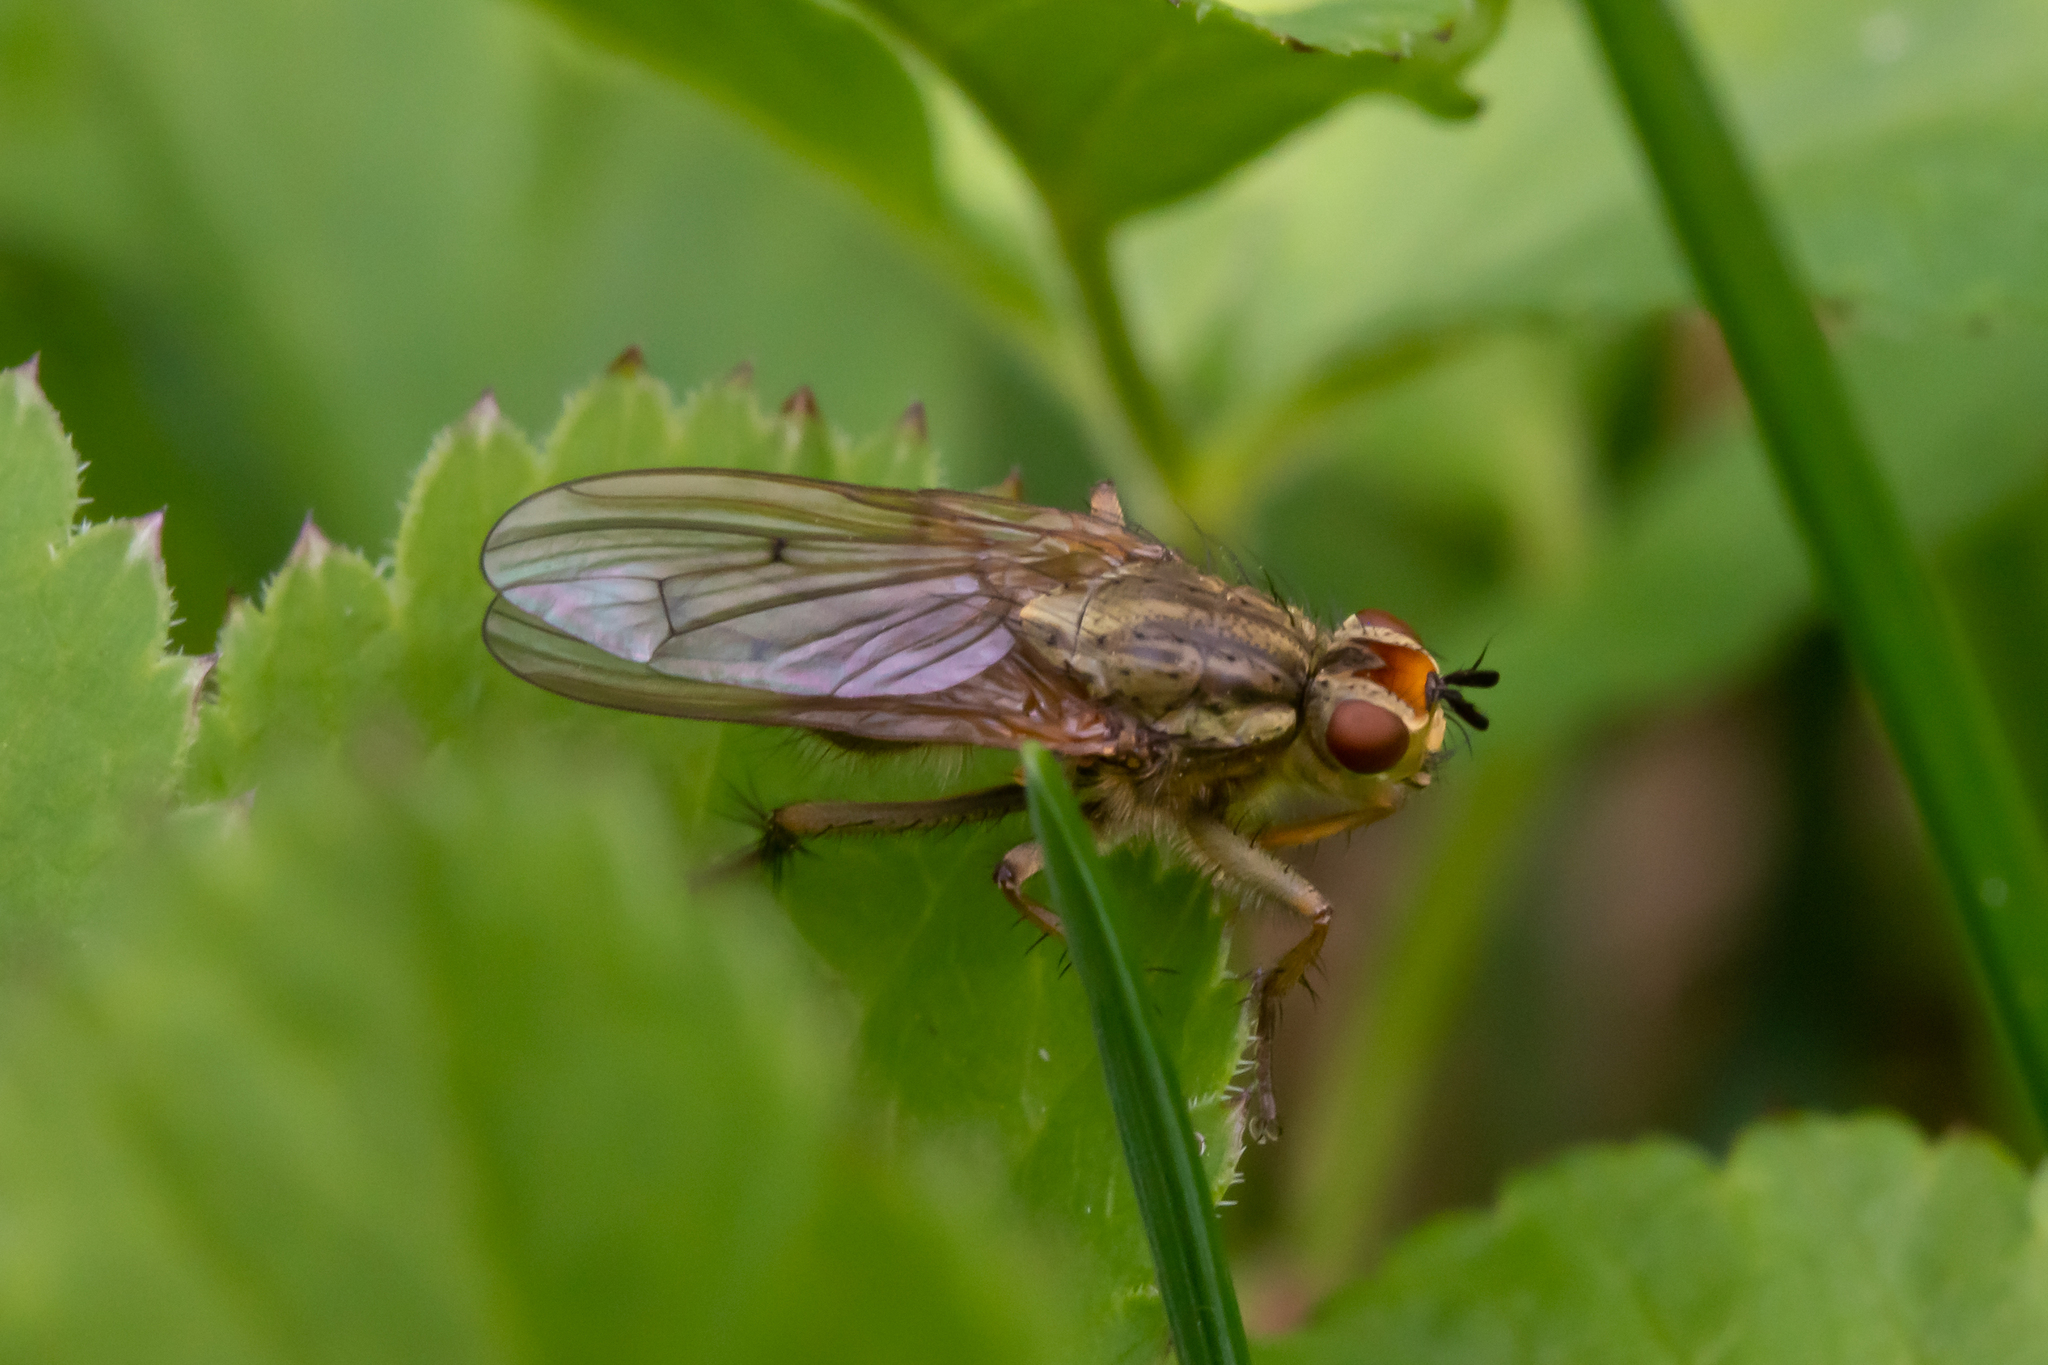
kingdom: Animalia
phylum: Arthropoda
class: Insecta
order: Diptera
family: Scathophagidae
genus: Scathophaga
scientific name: Scathophaga stercoraria
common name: Yellow dung fly
